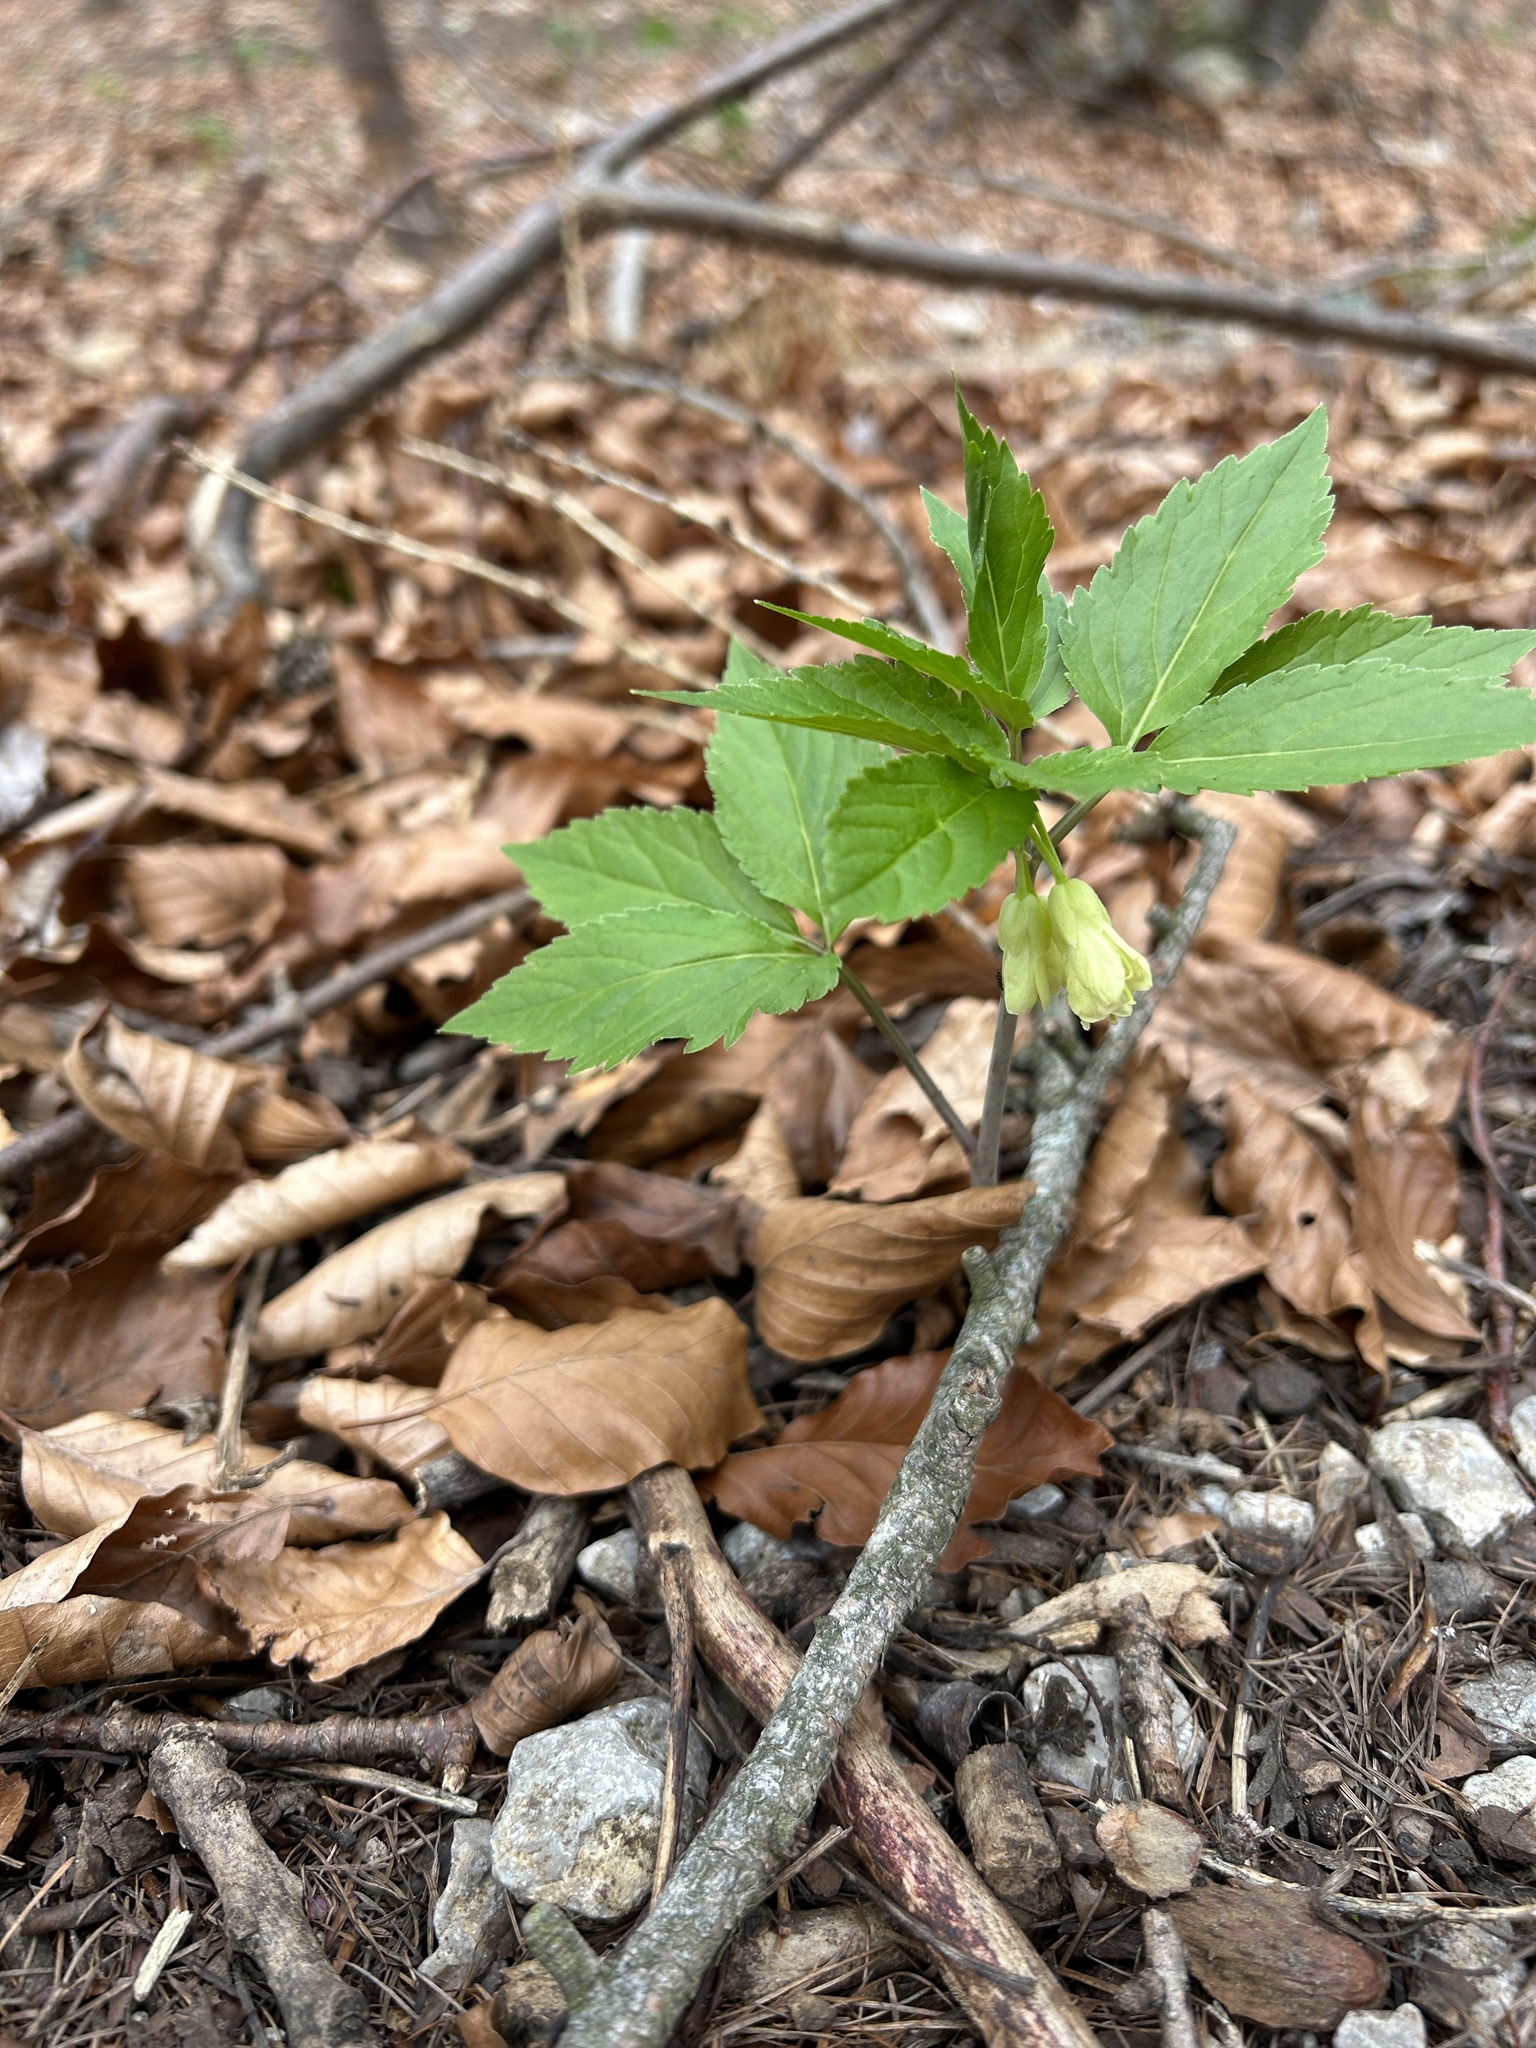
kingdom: Plantae
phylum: Tracheophyta
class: Magnoliopsida
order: Brassicales
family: Brassicaceae
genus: Cardamine
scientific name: Cardamine enneaphyllos
